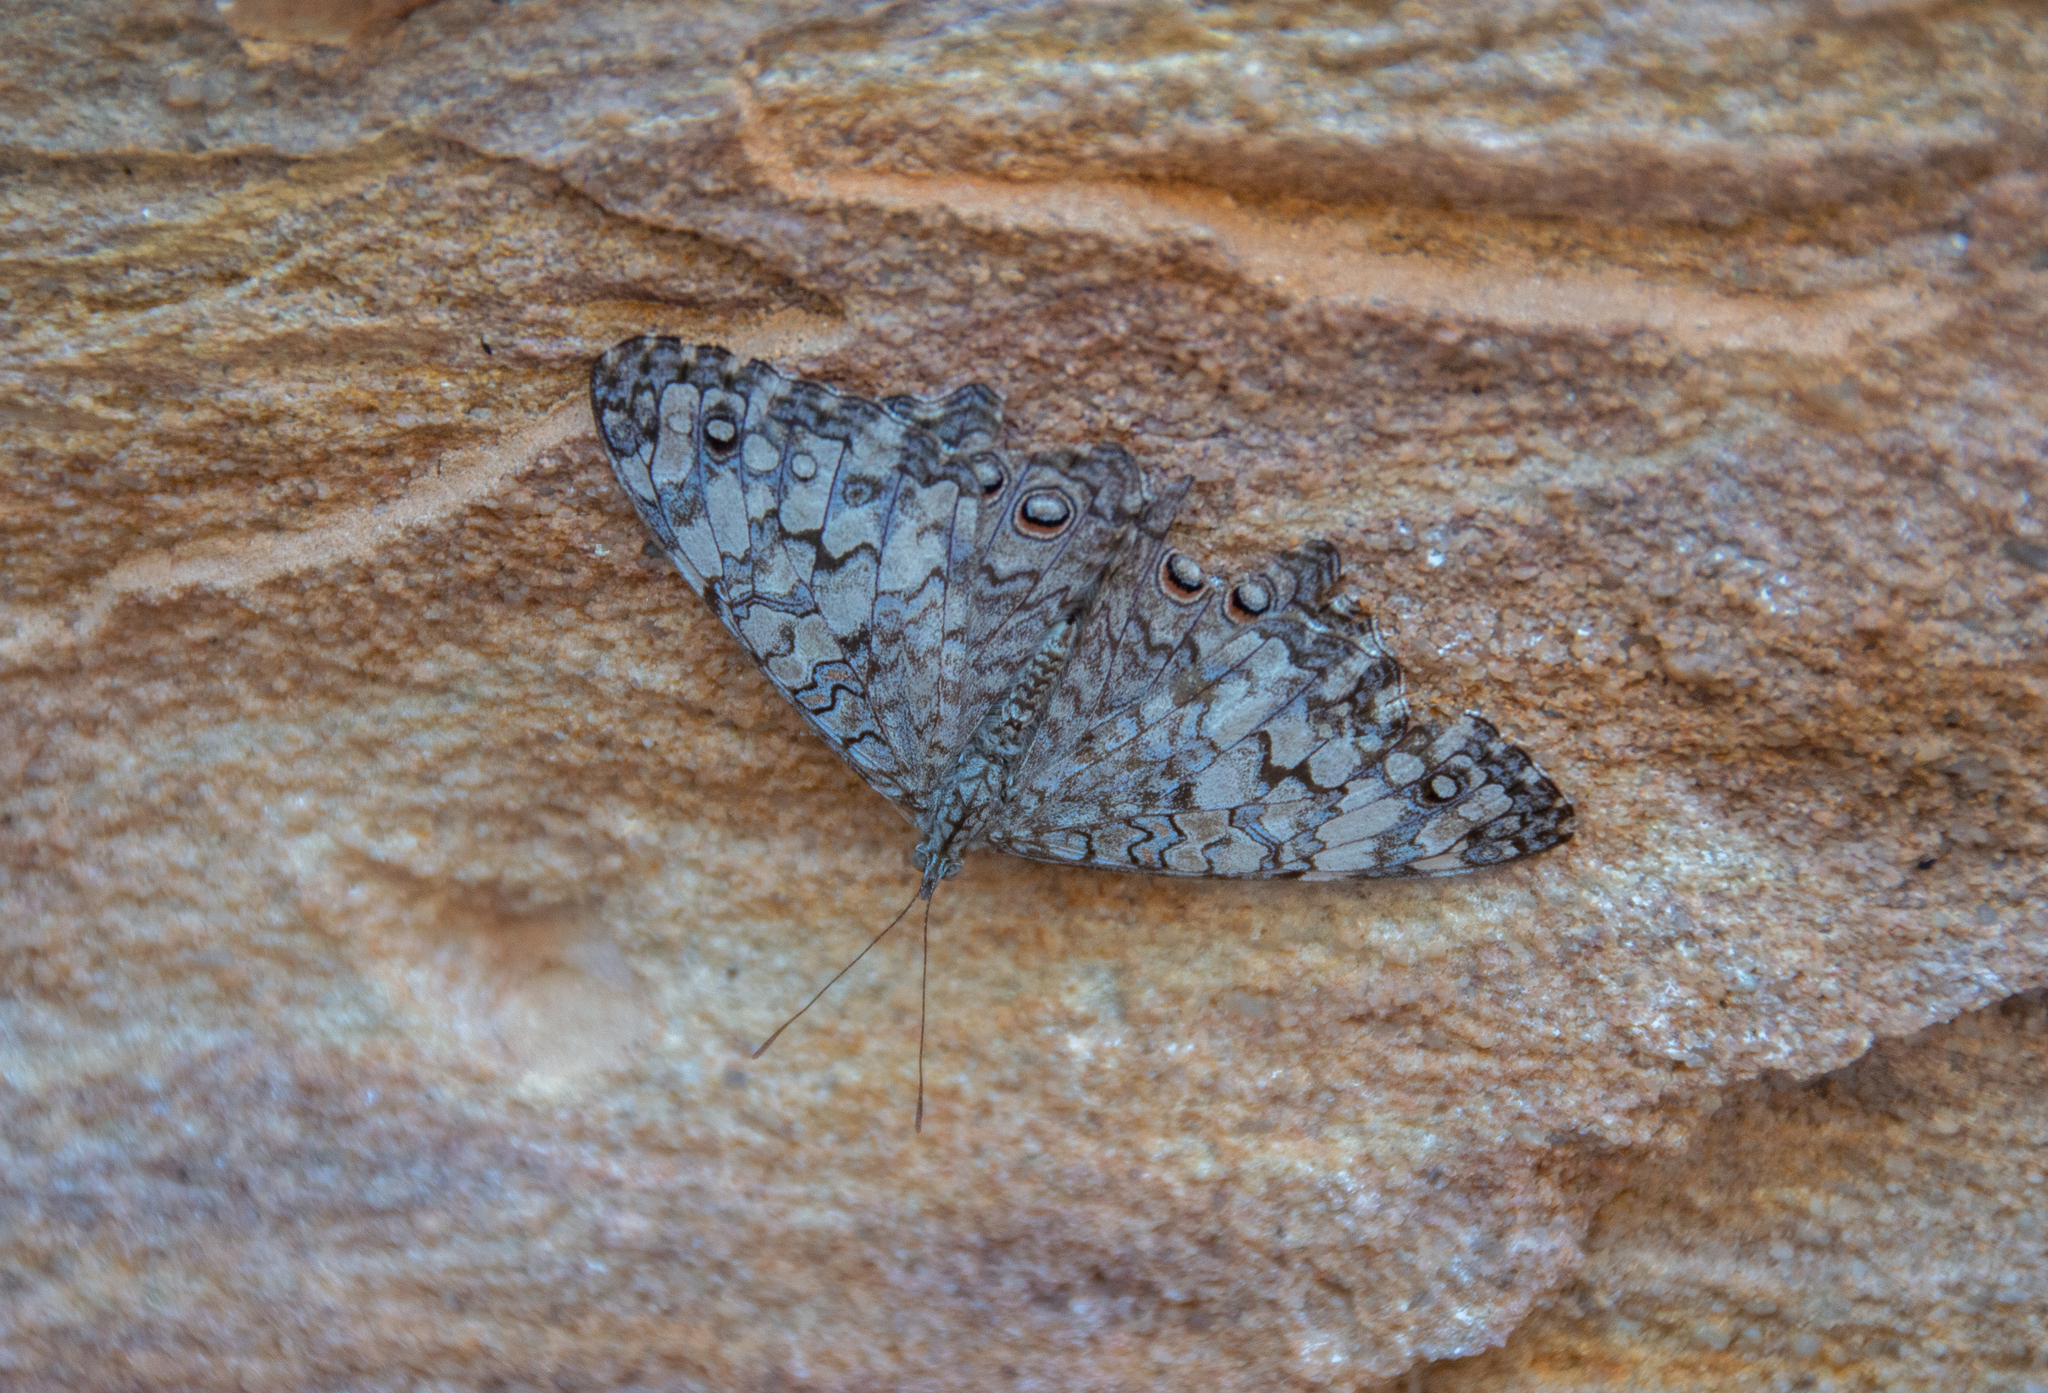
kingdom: Animalia
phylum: Arthropoda
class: Insecta
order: Lepidoptera
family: Nymphalidae
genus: Hamadryas
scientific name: Hamadryas februa
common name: Gray cracker
